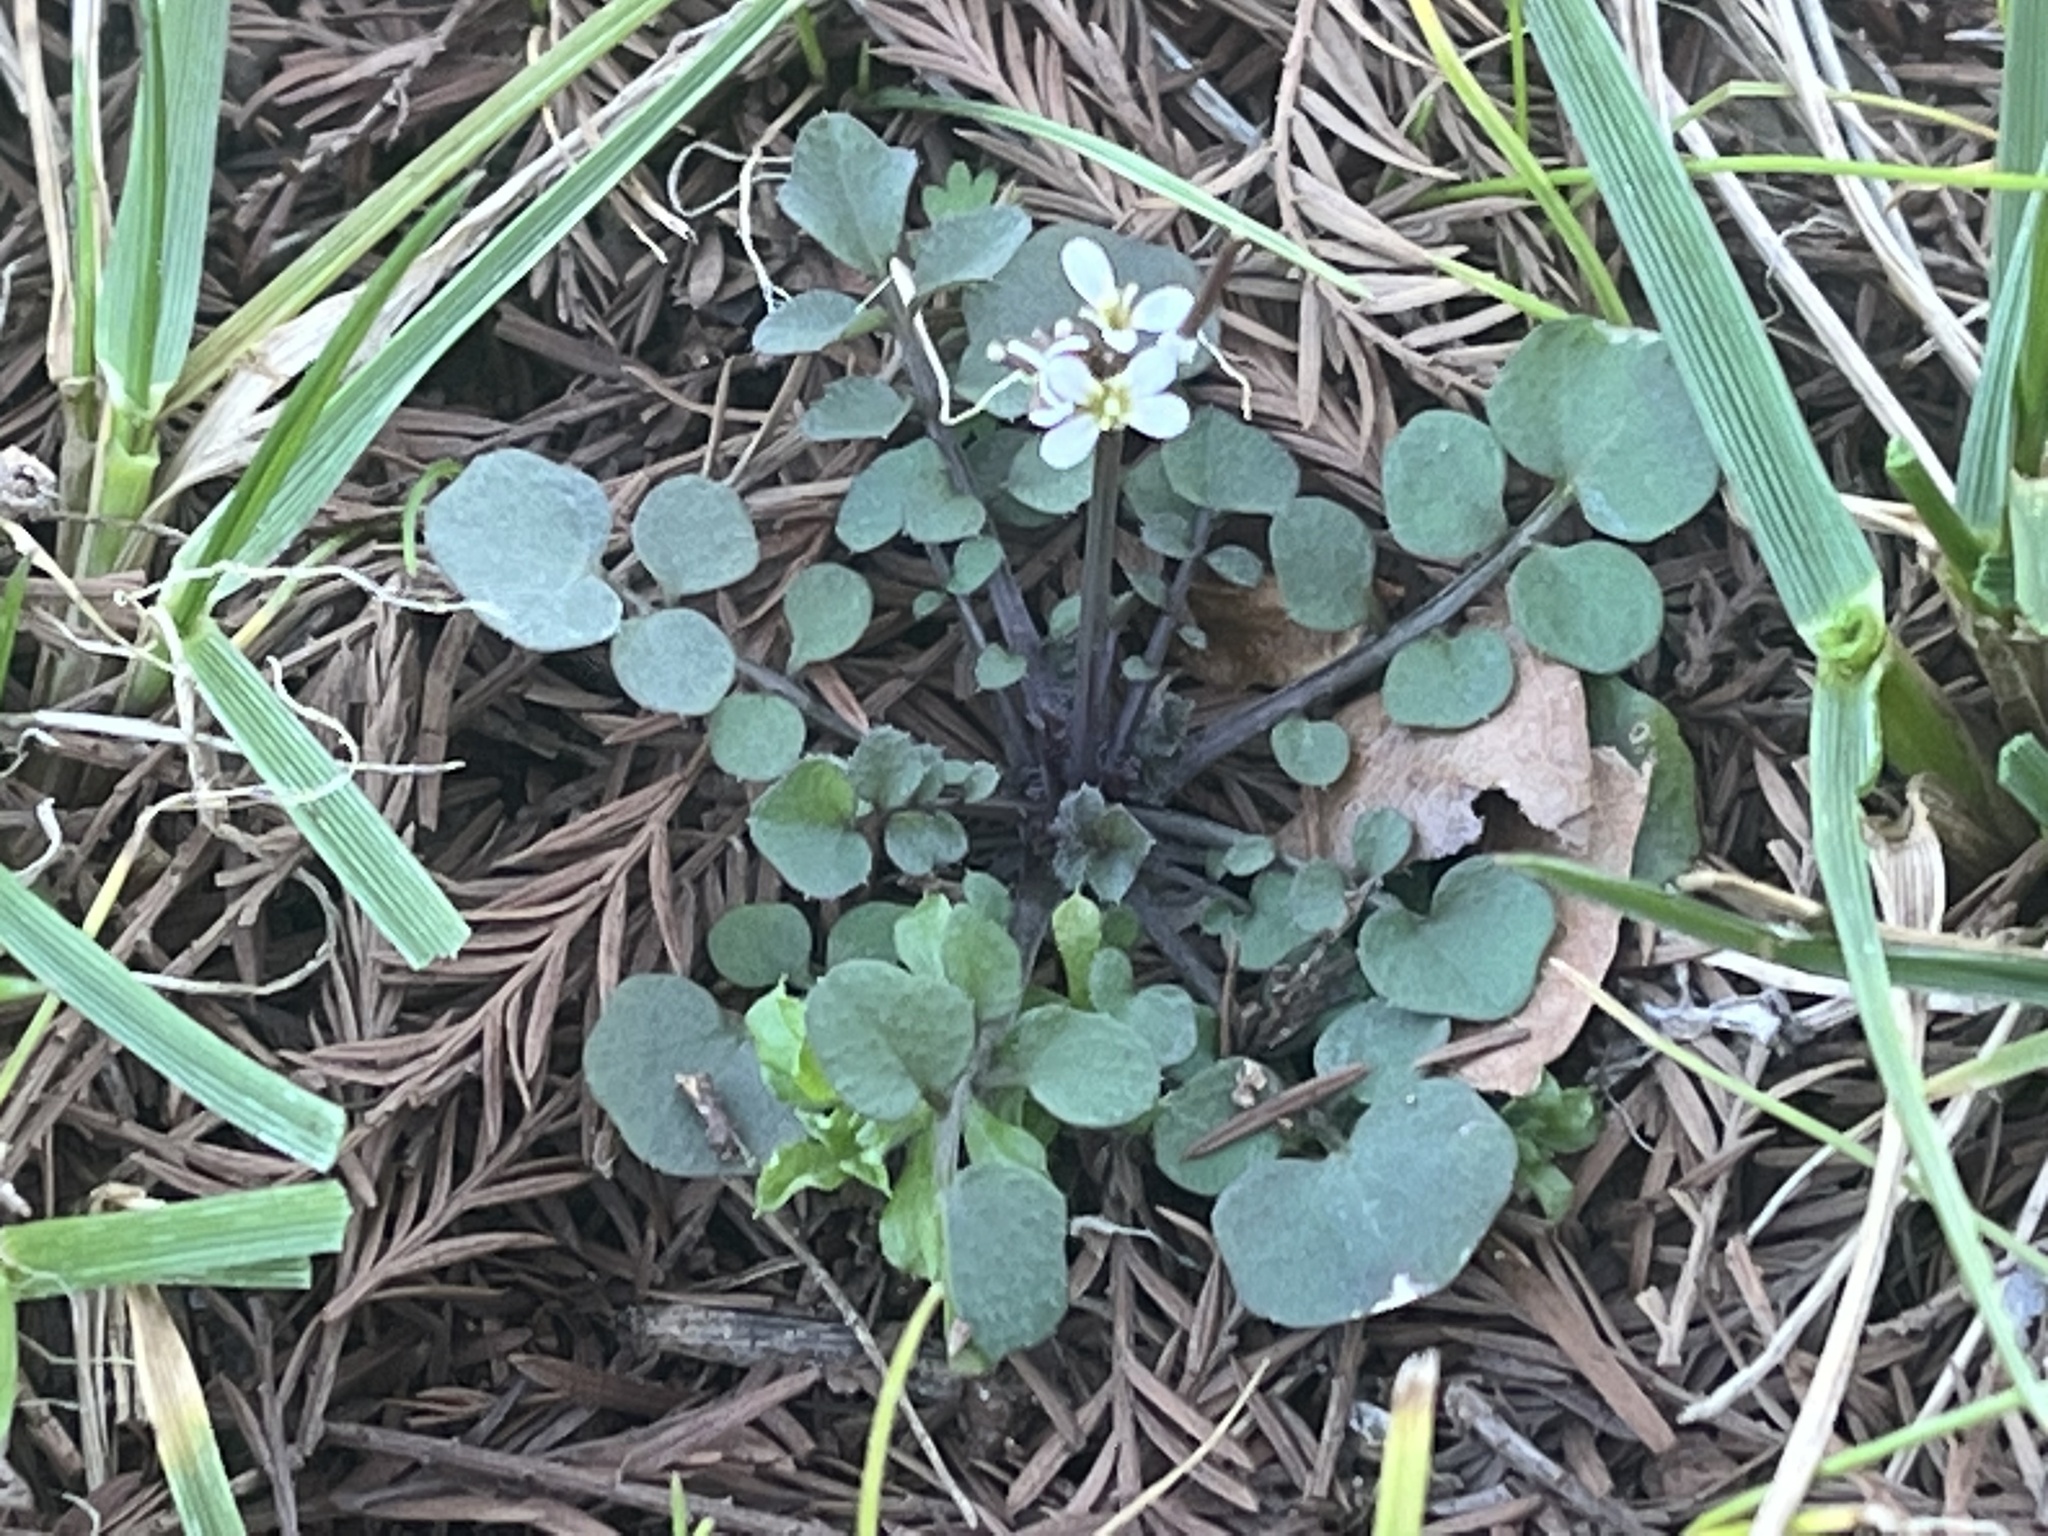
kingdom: Plantae
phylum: Tracheophyta
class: Magnoliopsida
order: Brassicales
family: Brassicaceae
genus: Cardamine
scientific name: Cardamine hirsuta
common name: Hairy bittercress
